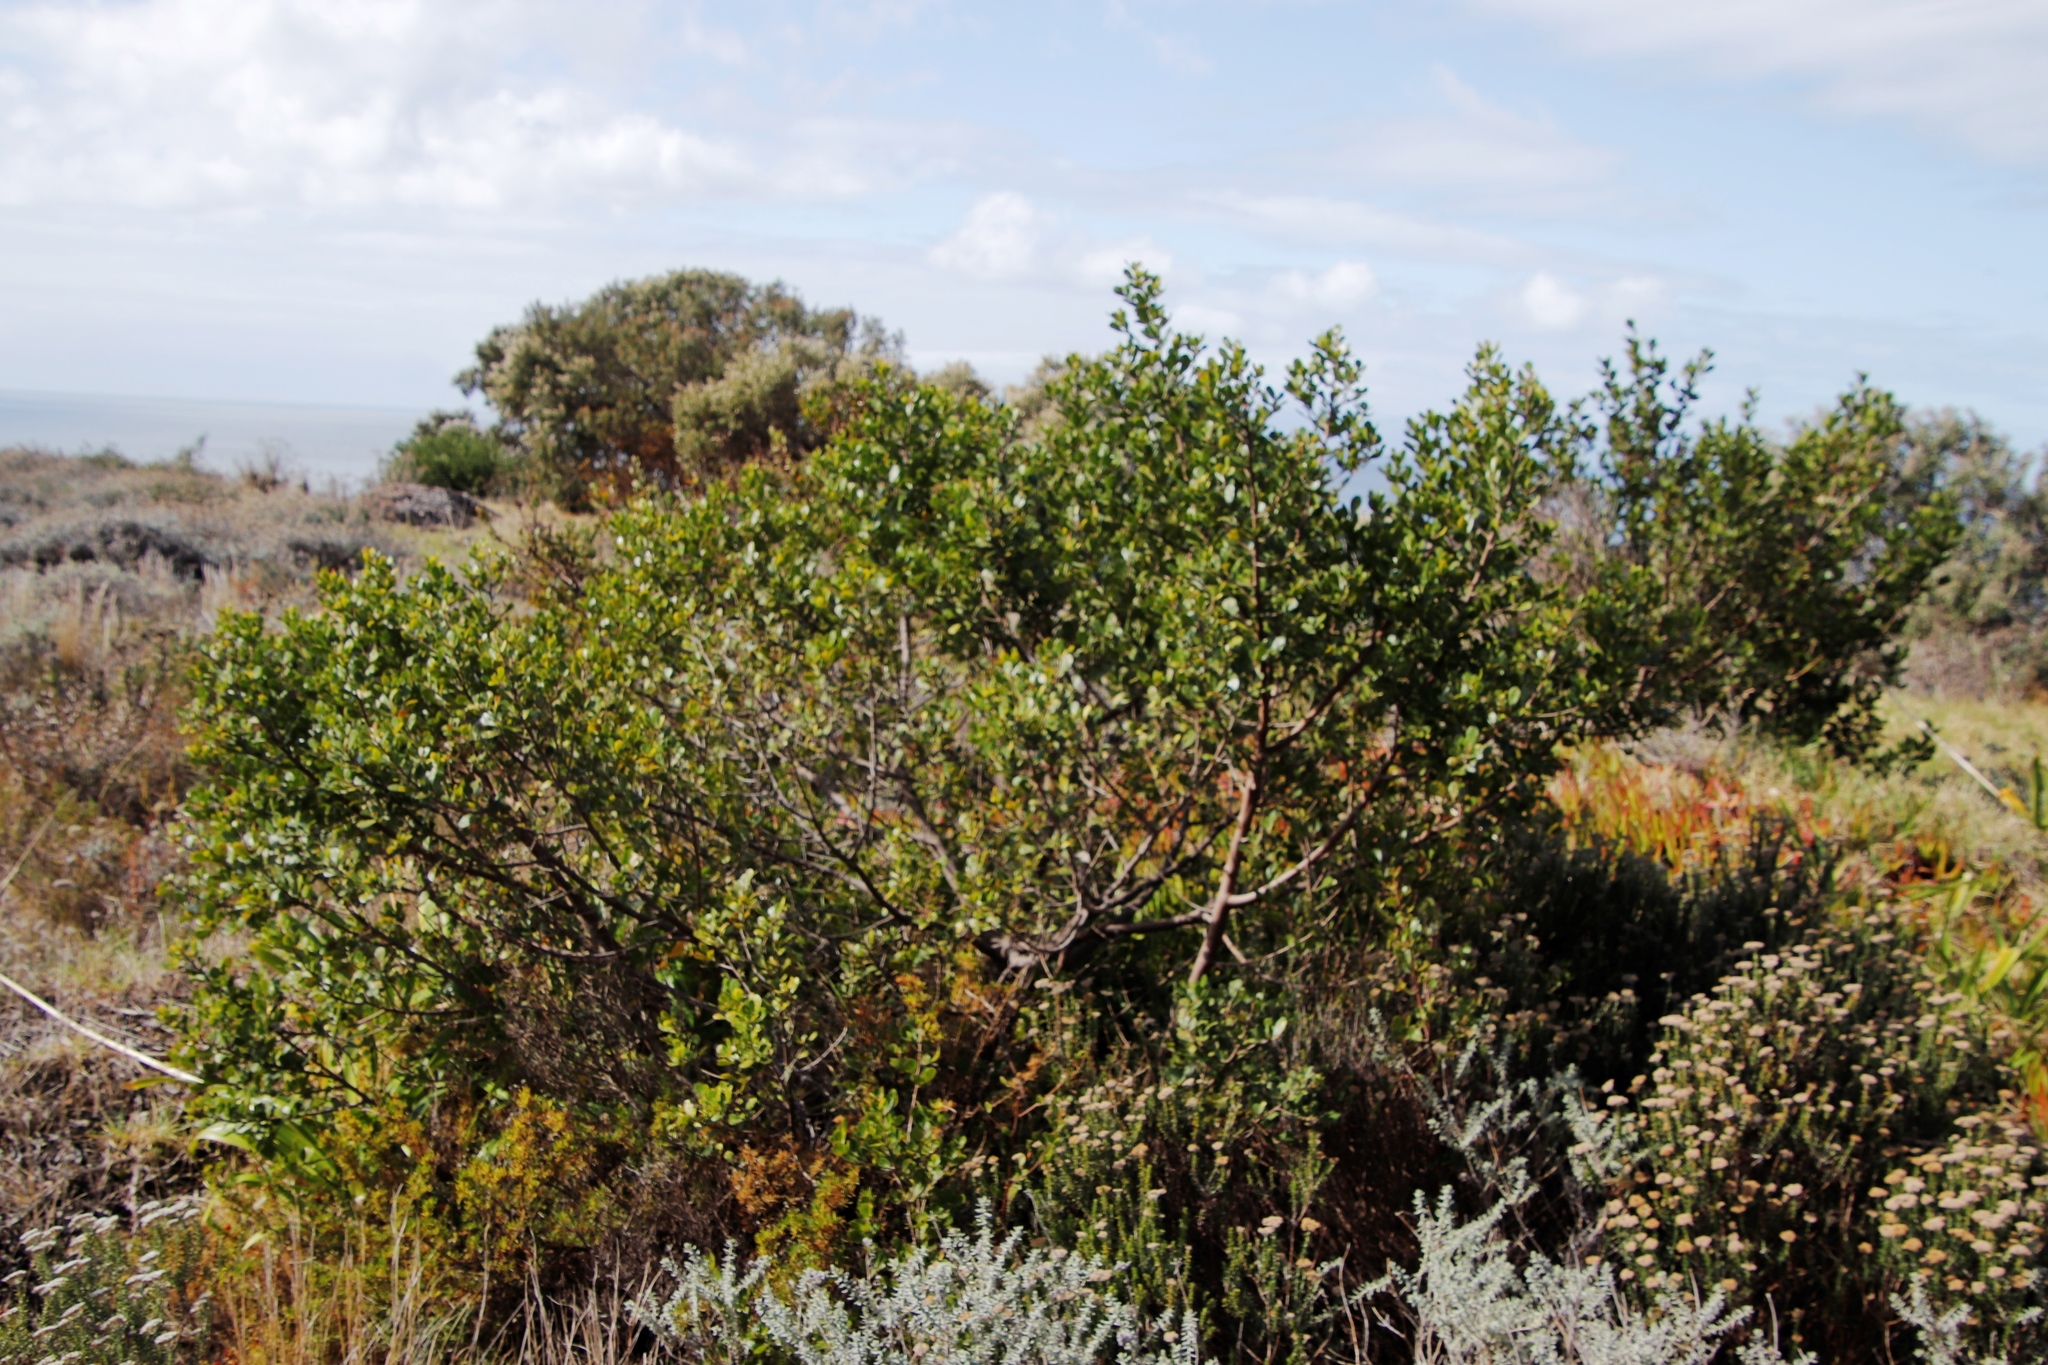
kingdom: Plantae
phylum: Tracheophyta
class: Magnoliopsida
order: Sapindales
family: Anacardiaceae
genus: Searsia
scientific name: Searsia glauca
